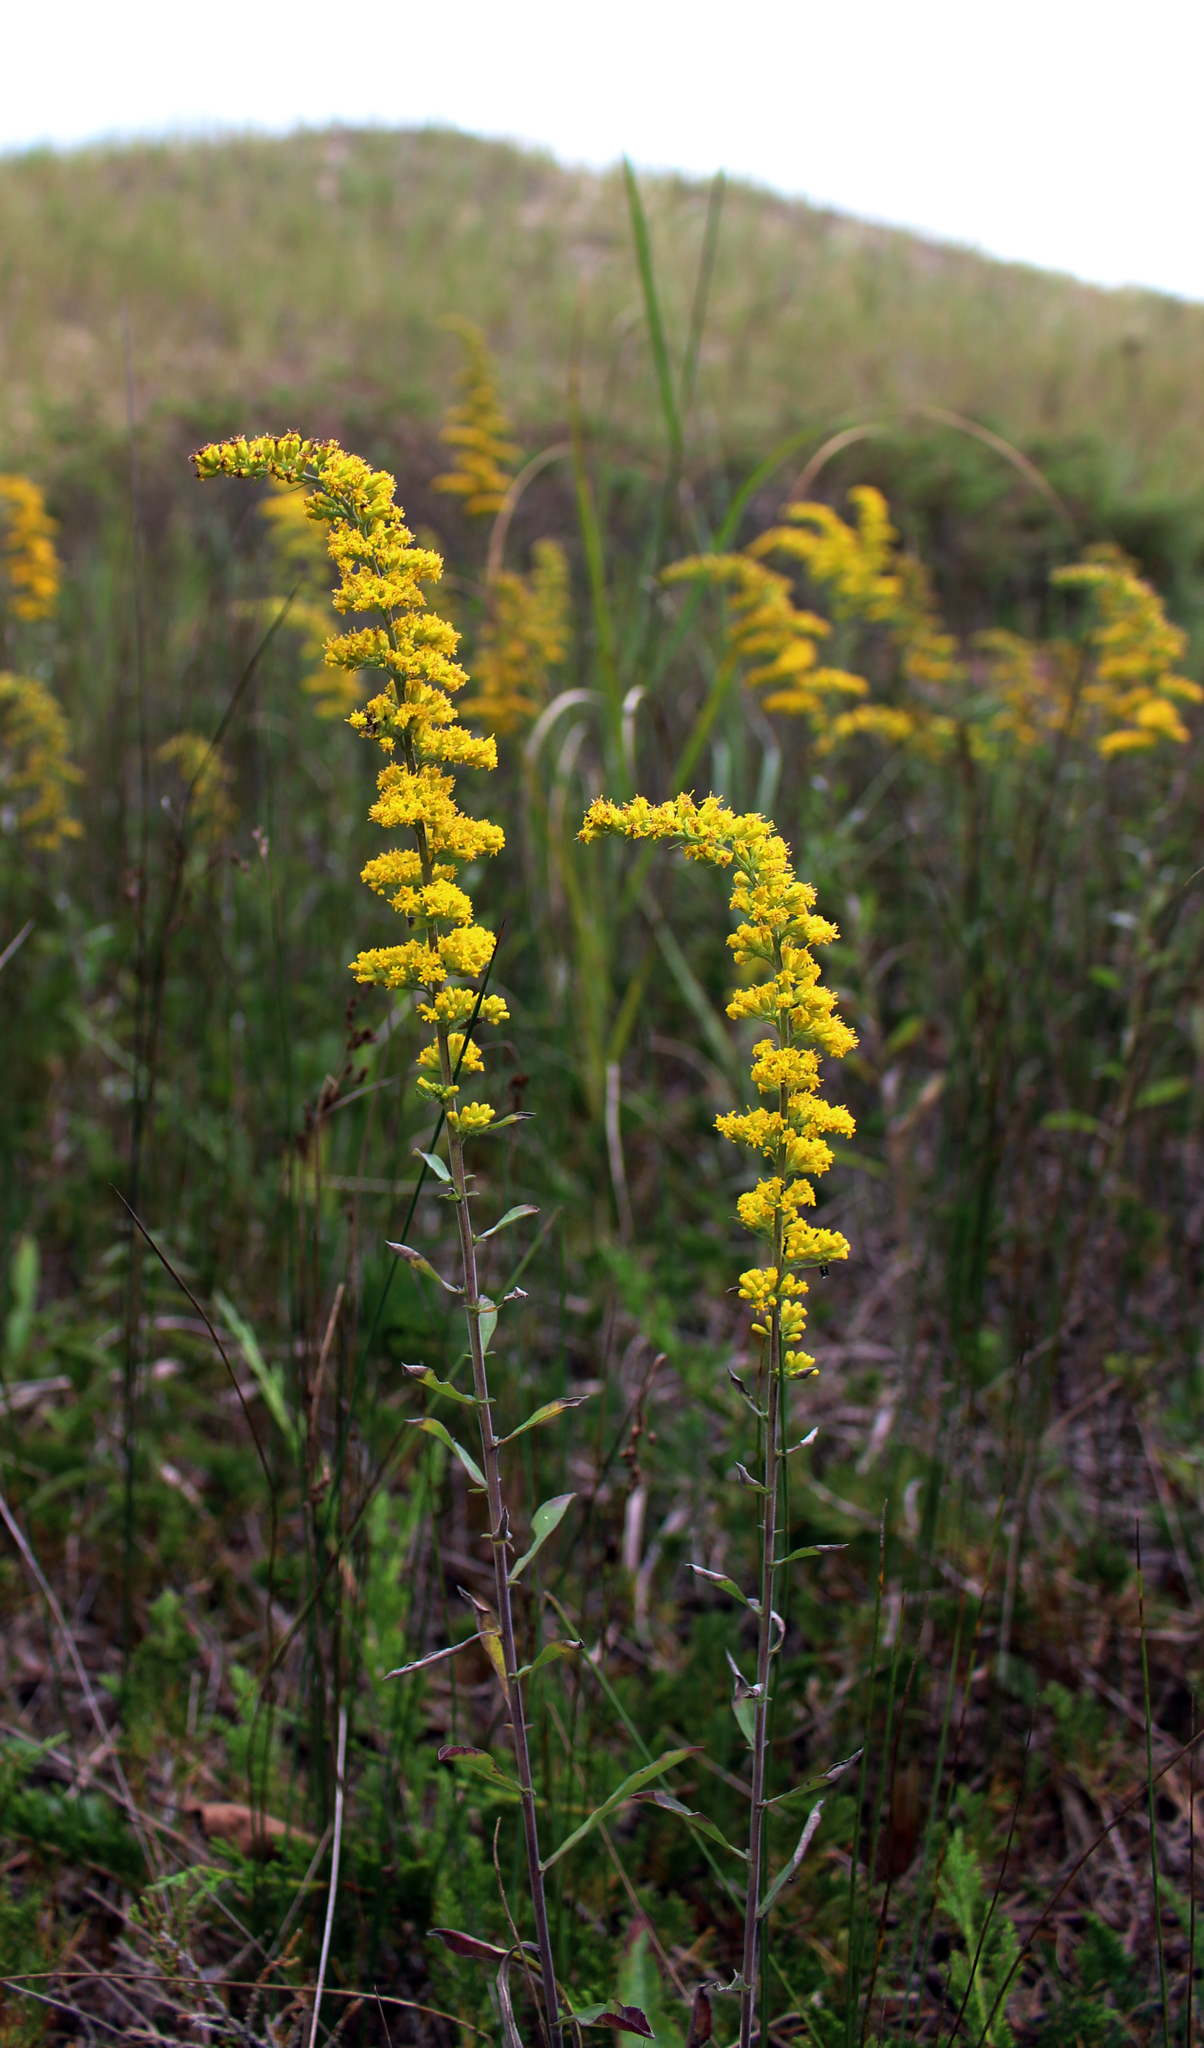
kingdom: Plantae
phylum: Tracheophyta
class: Magnoliopsida
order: Asterales
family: Asteraceae
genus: Solidago
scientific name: Solidago nemoralis
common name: Grey goldenrod
